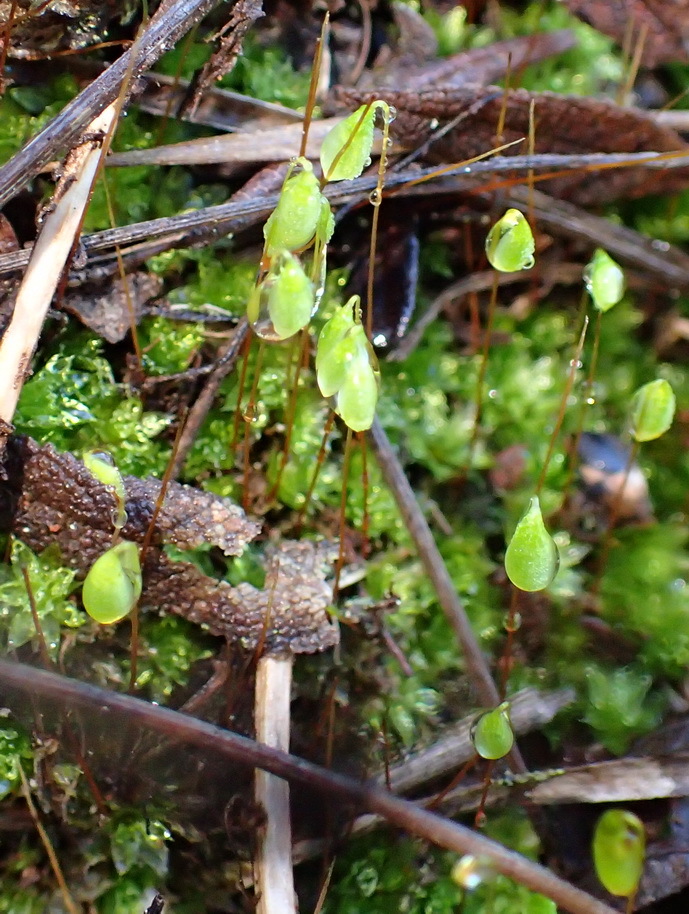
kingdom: Plantae
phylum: Bryophyta
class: Bryopsida
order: Bryales
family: Bryaceae
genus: Rosulabryum
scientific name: Rosulabryum canariense
